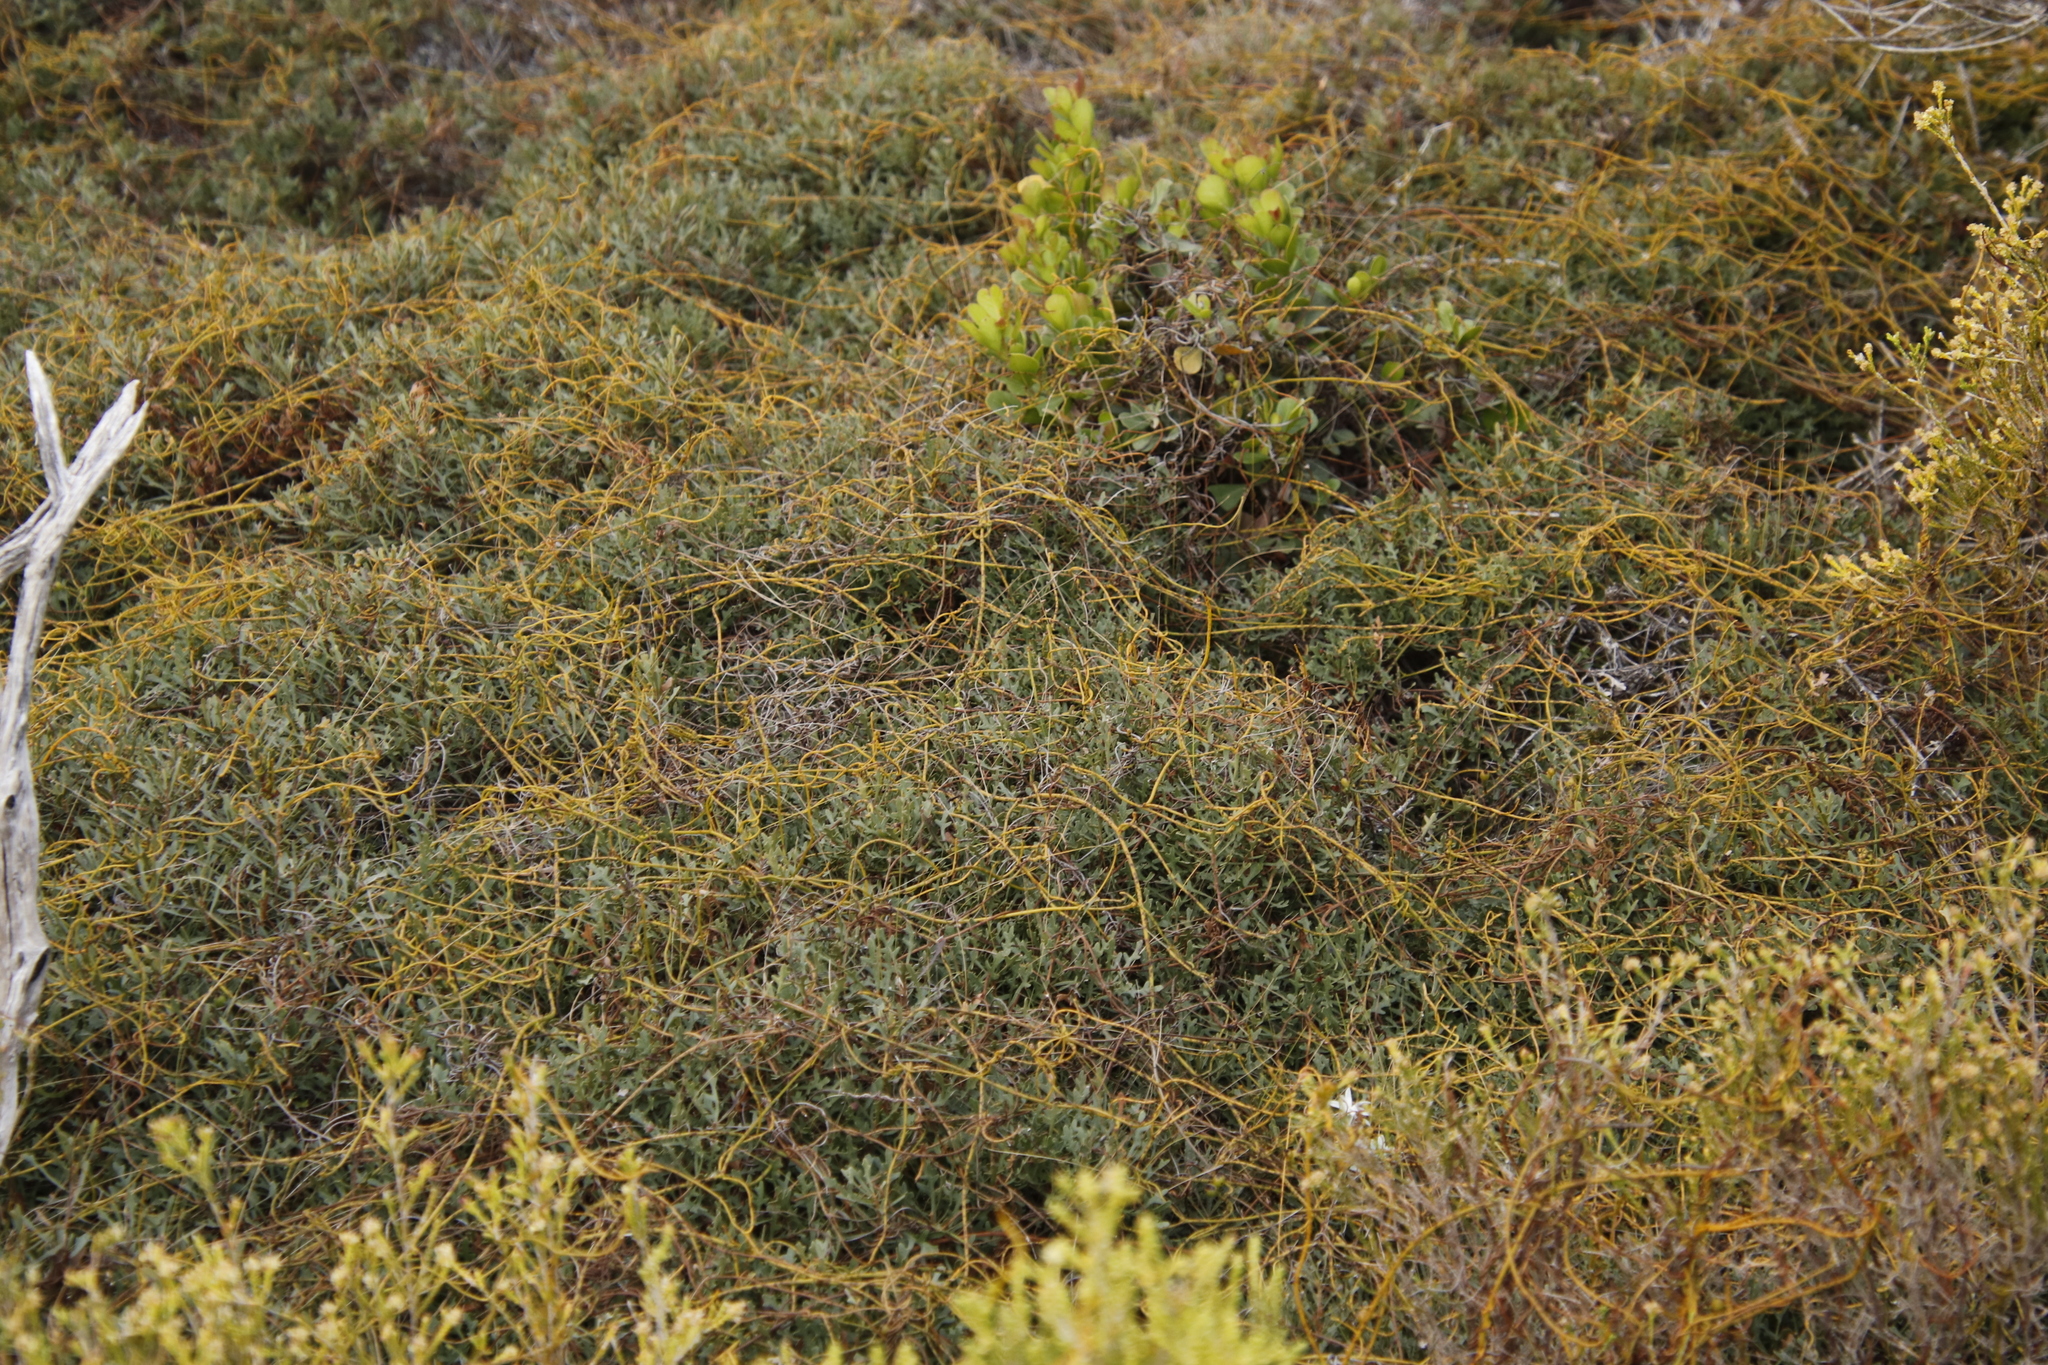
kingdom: Plantae
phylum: Tracheophyta
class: Magnoliopsida
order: Fagales
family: Myricaceae
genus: Morella
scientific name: Morella quercifolia
